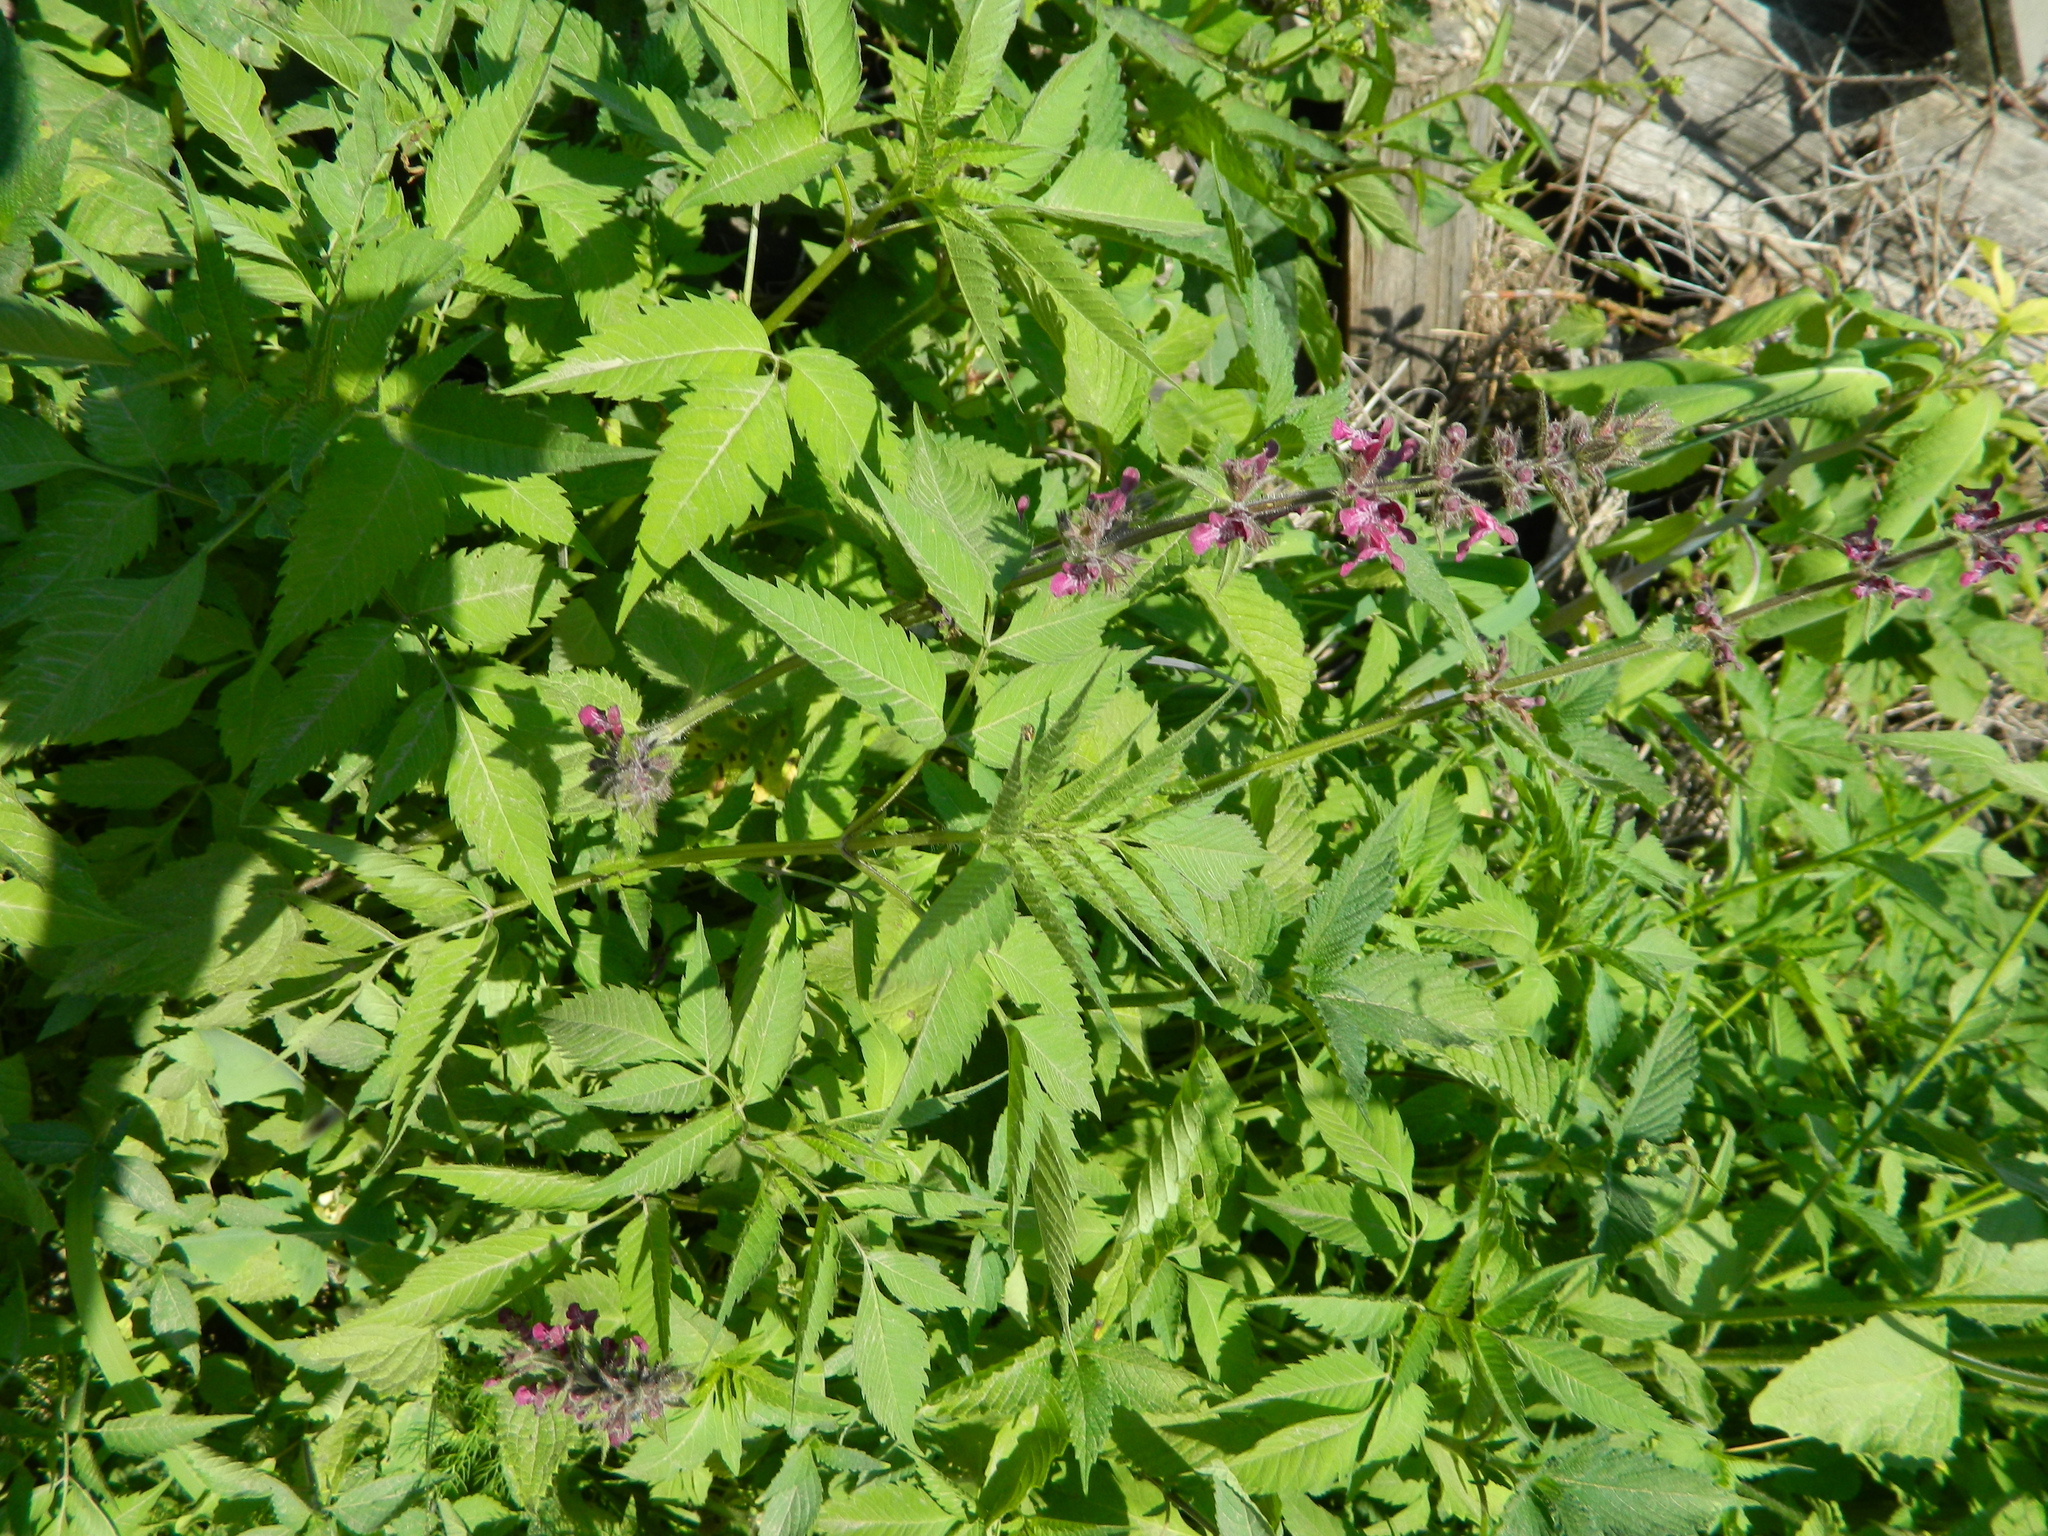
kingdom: Plantae
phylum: Tracheophyta
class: Magnoliopsida
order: Lamiales
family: Lamiaceae
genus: Stachys
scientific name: Stachys sylvatica
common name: Hedge woundwort
